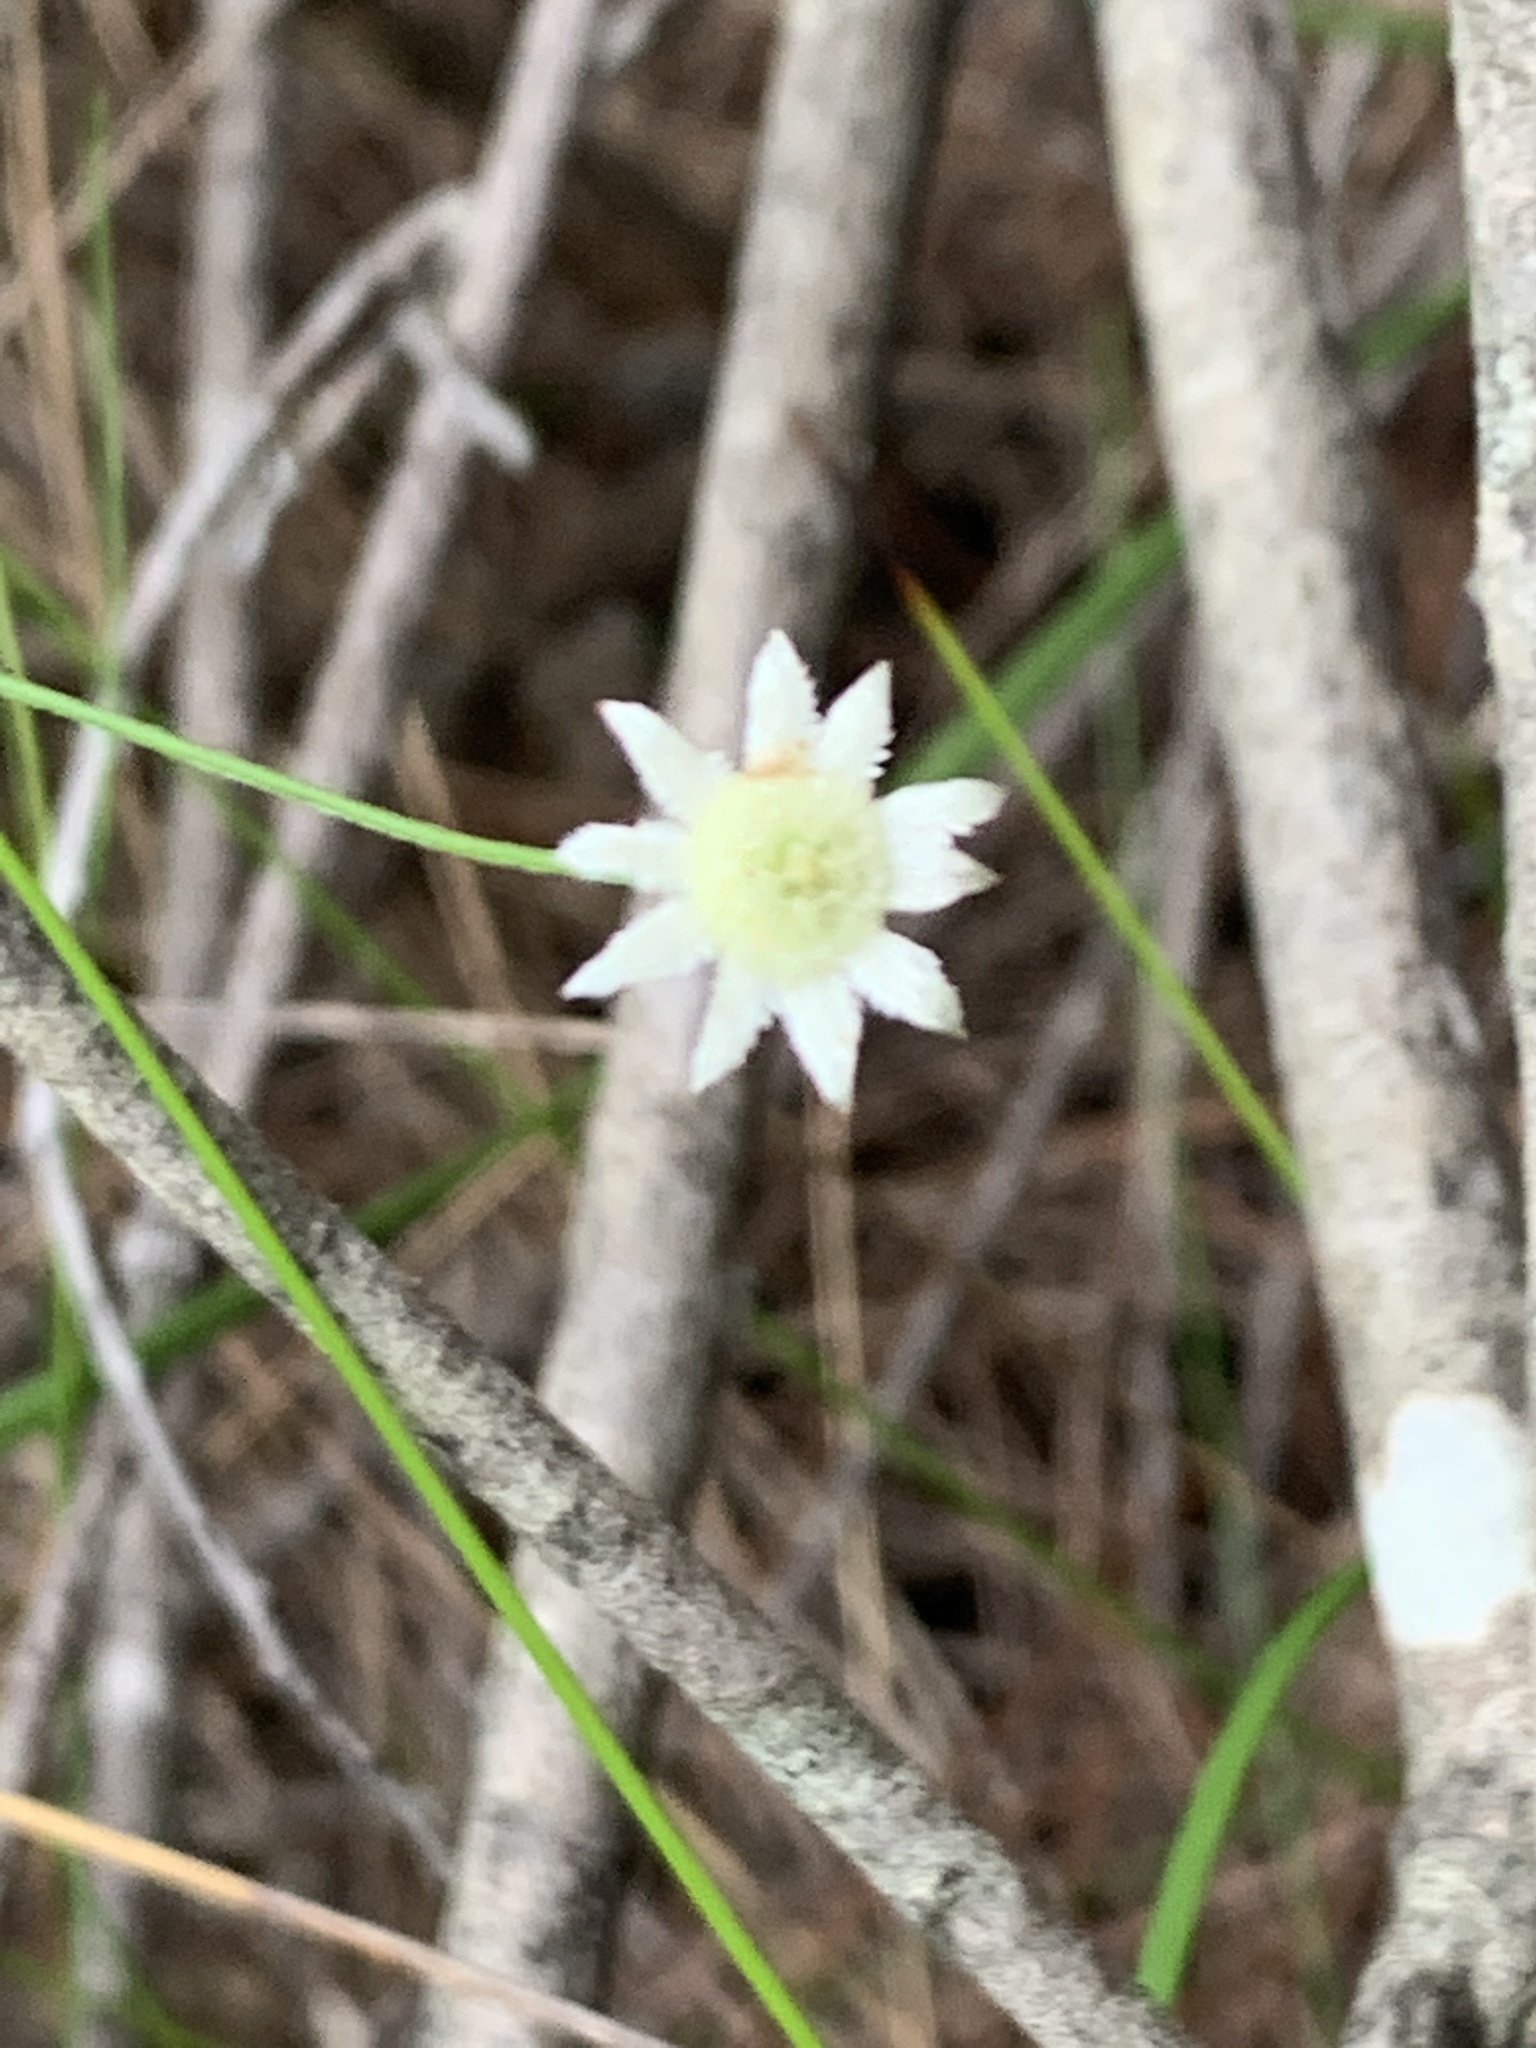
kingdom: Plantae
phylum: Tracheophyta
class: Magnoliopsida
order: Apiales
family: Apiaceae
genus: Actinotus
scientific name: Actinotus minor
